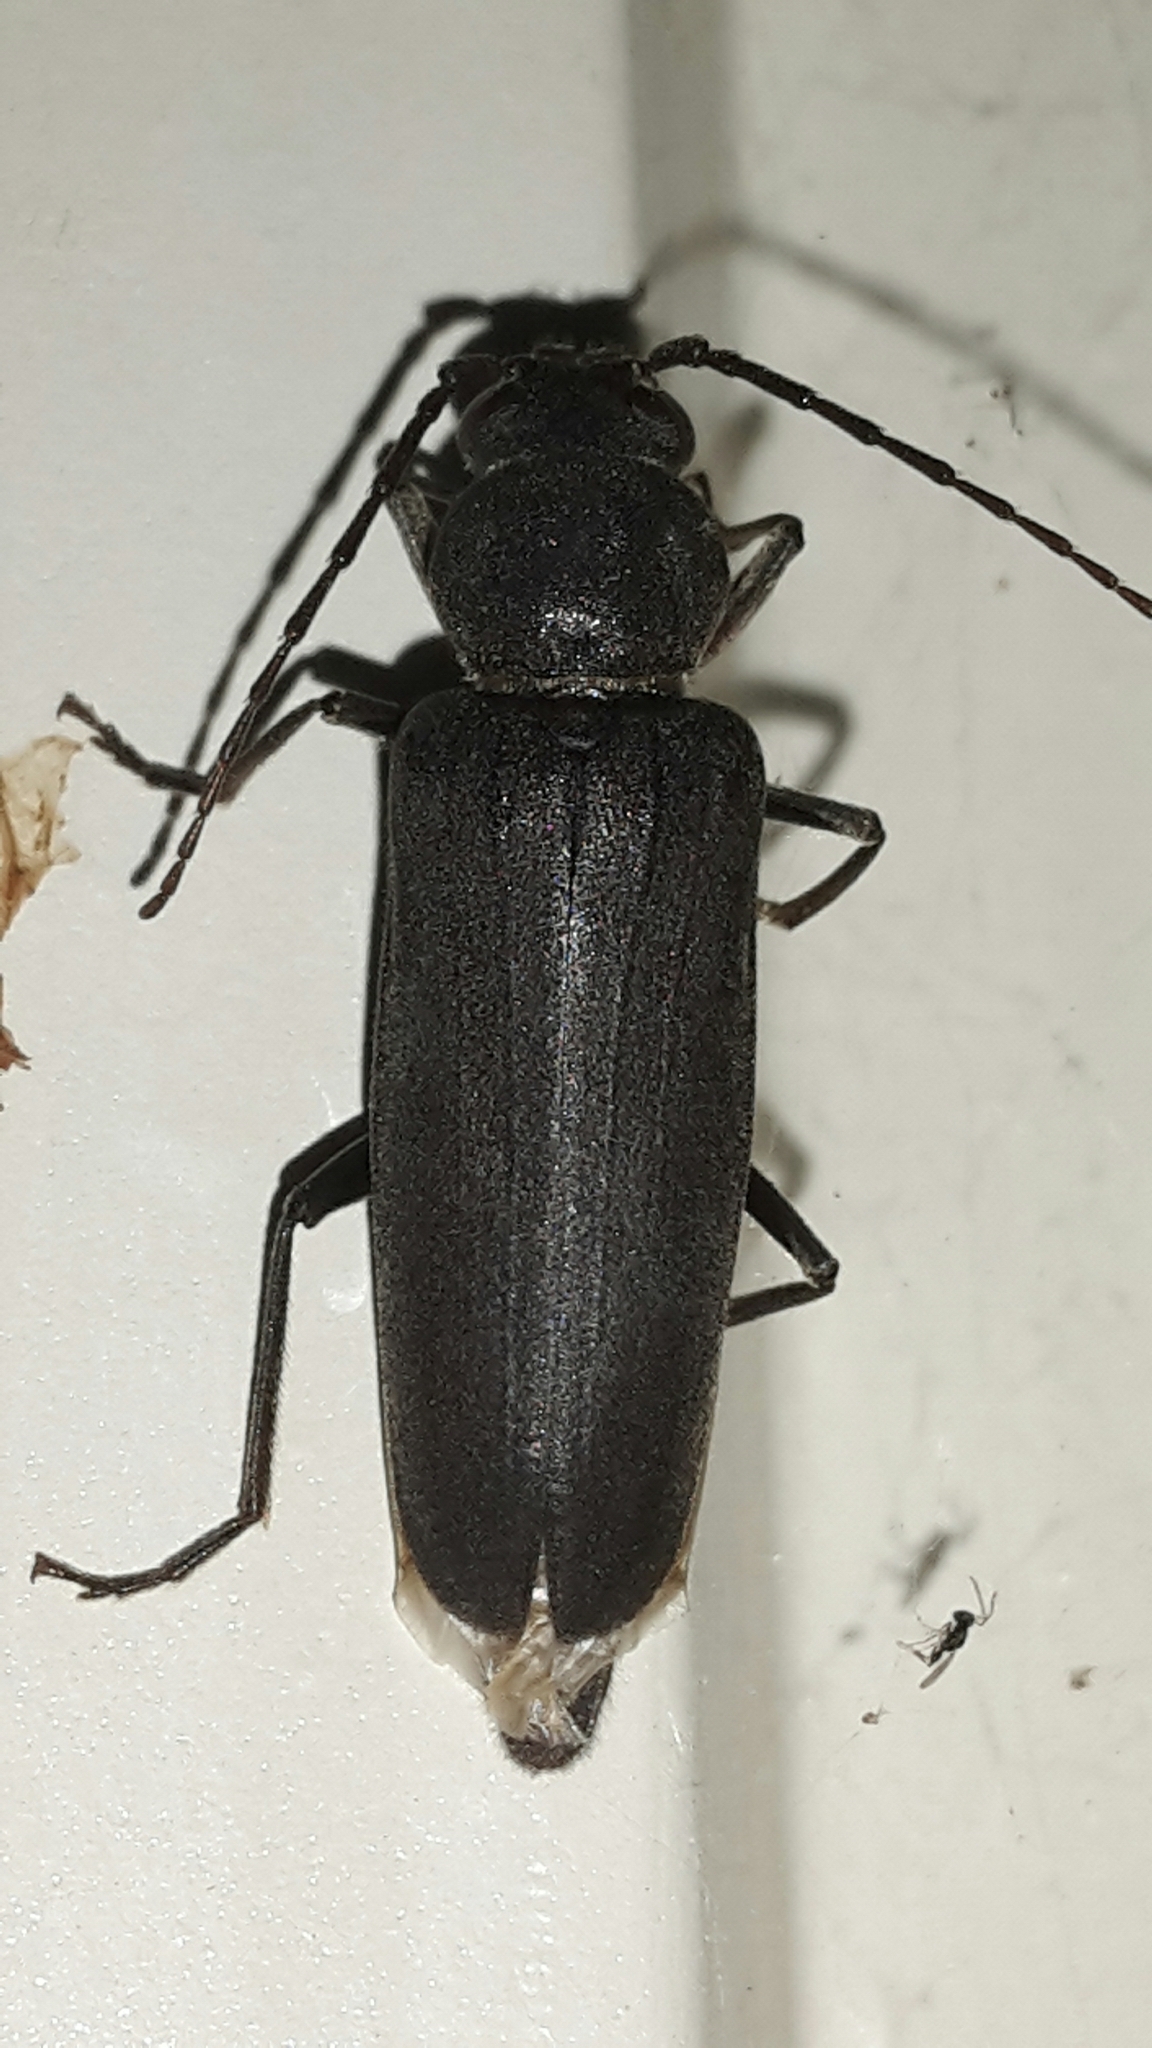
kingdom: Animalia
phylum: Arthropoda
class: Insecta
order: Coleoptera
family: Cerambycidae
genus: Arhopalus
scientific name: Arhopalus ferus
